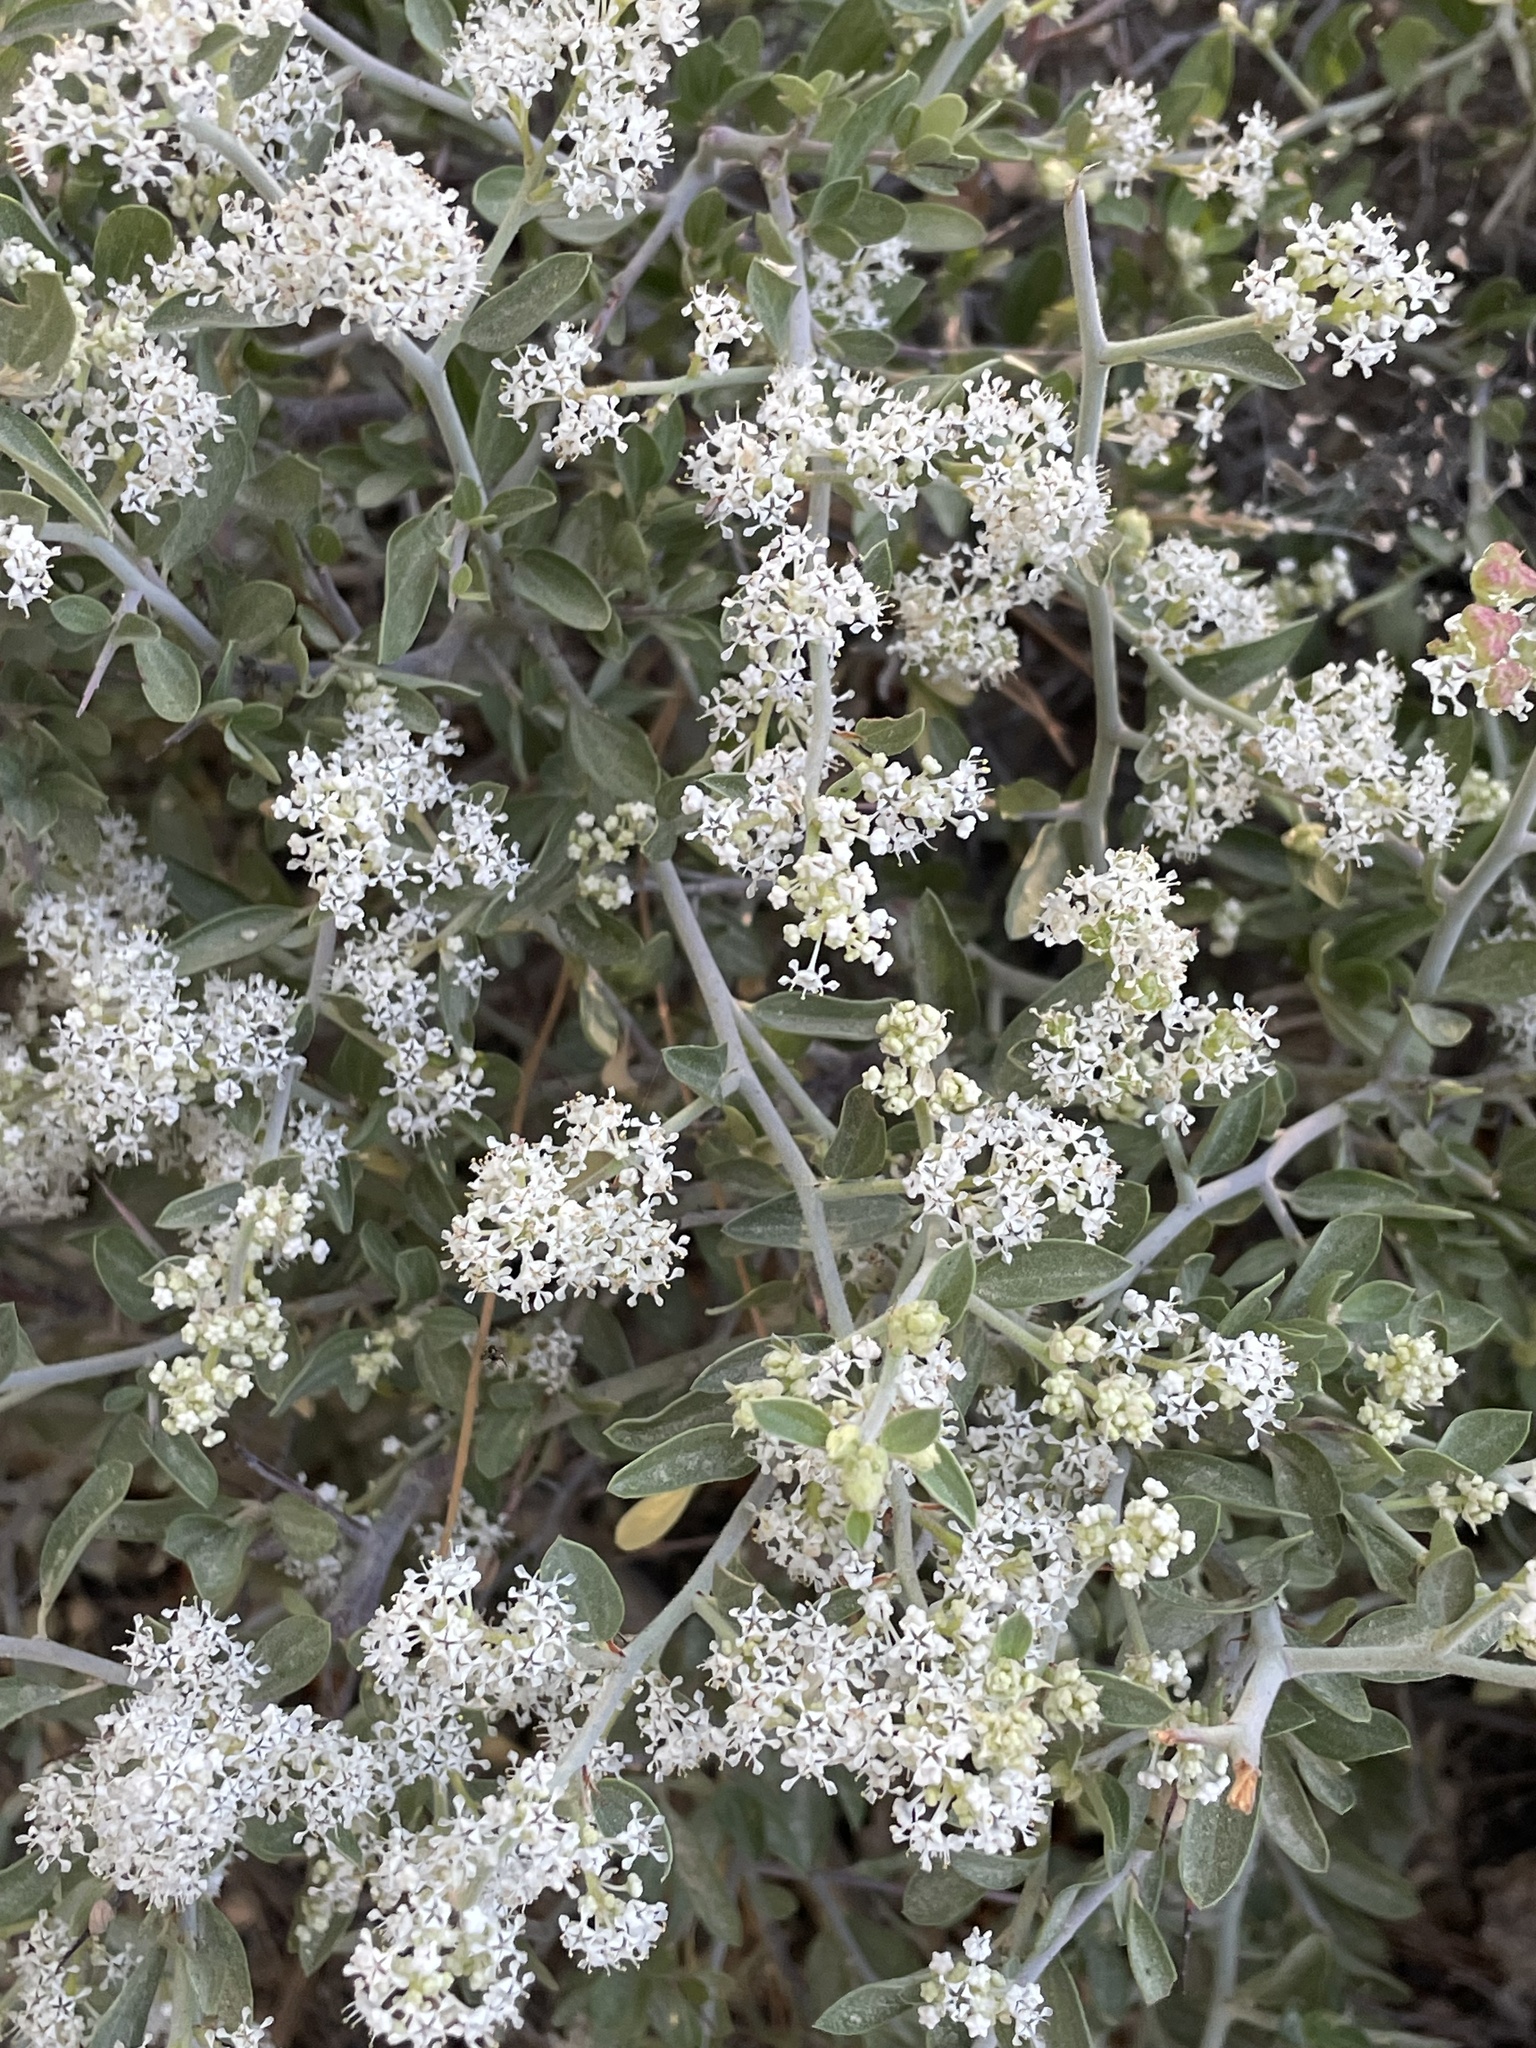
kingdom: Plantae
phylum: Tracheophyta
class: Magnoliopsida
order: Rosales
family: Rhamnaceae
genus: Ceanothus
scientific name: Ceanothus fendleri
